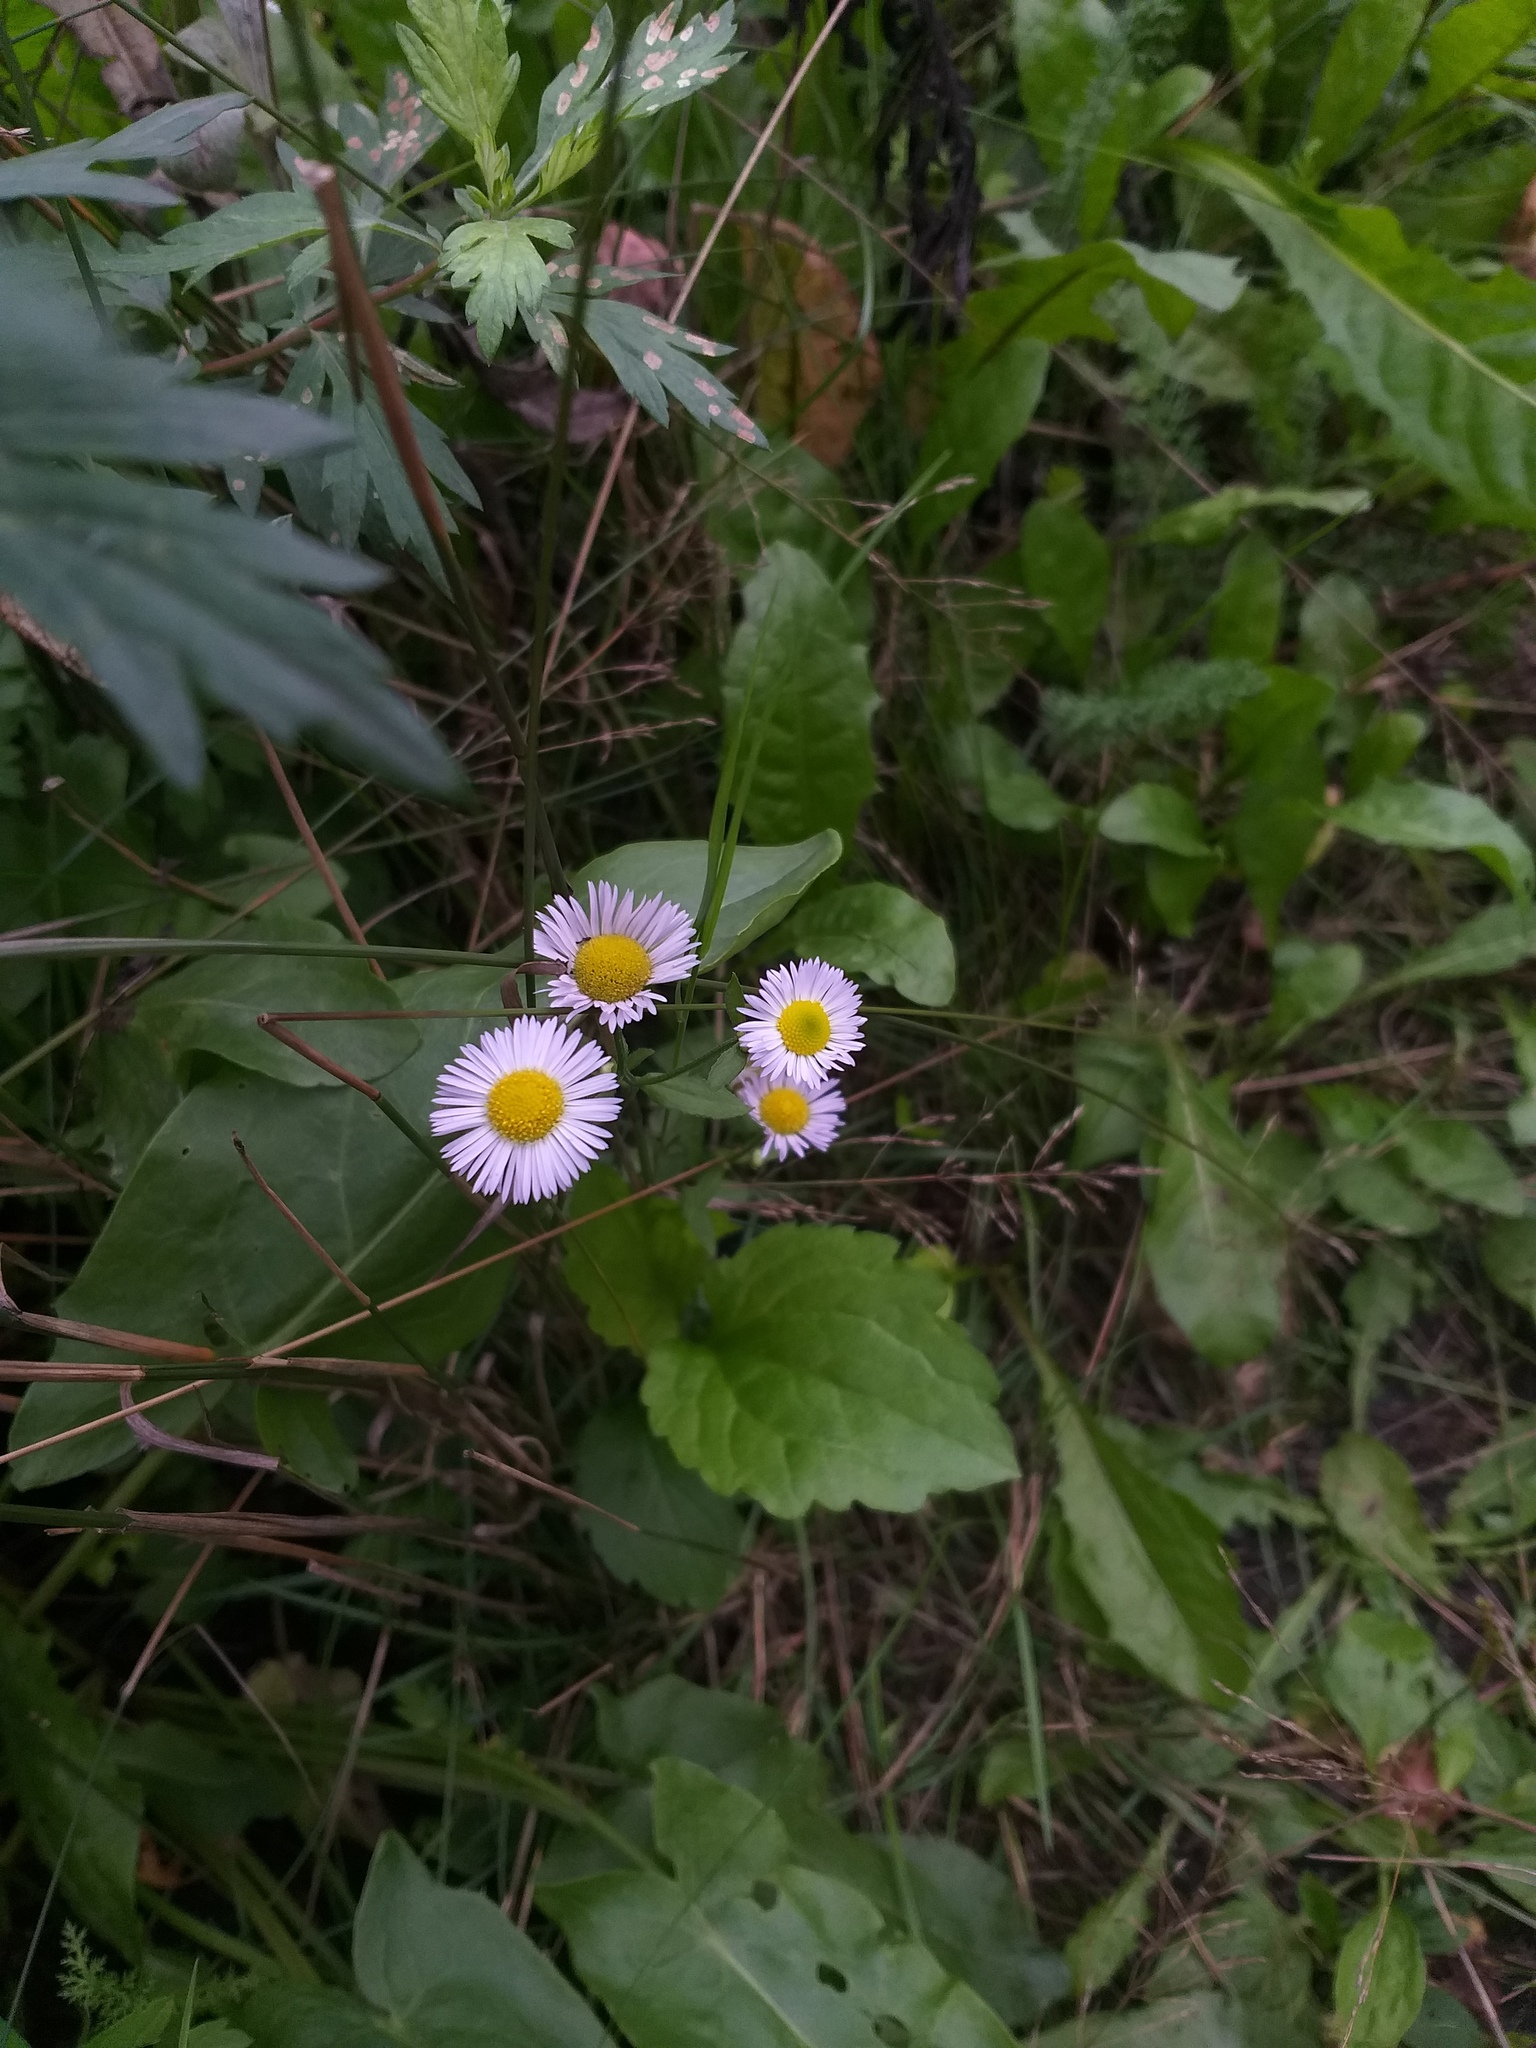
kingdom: Plantae
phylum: Tracheophyta
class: Magnoliopsida
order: Asterales
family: Asteraceae
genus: Erigeron
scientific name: Erigeron annuus
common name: Tall fleabane
